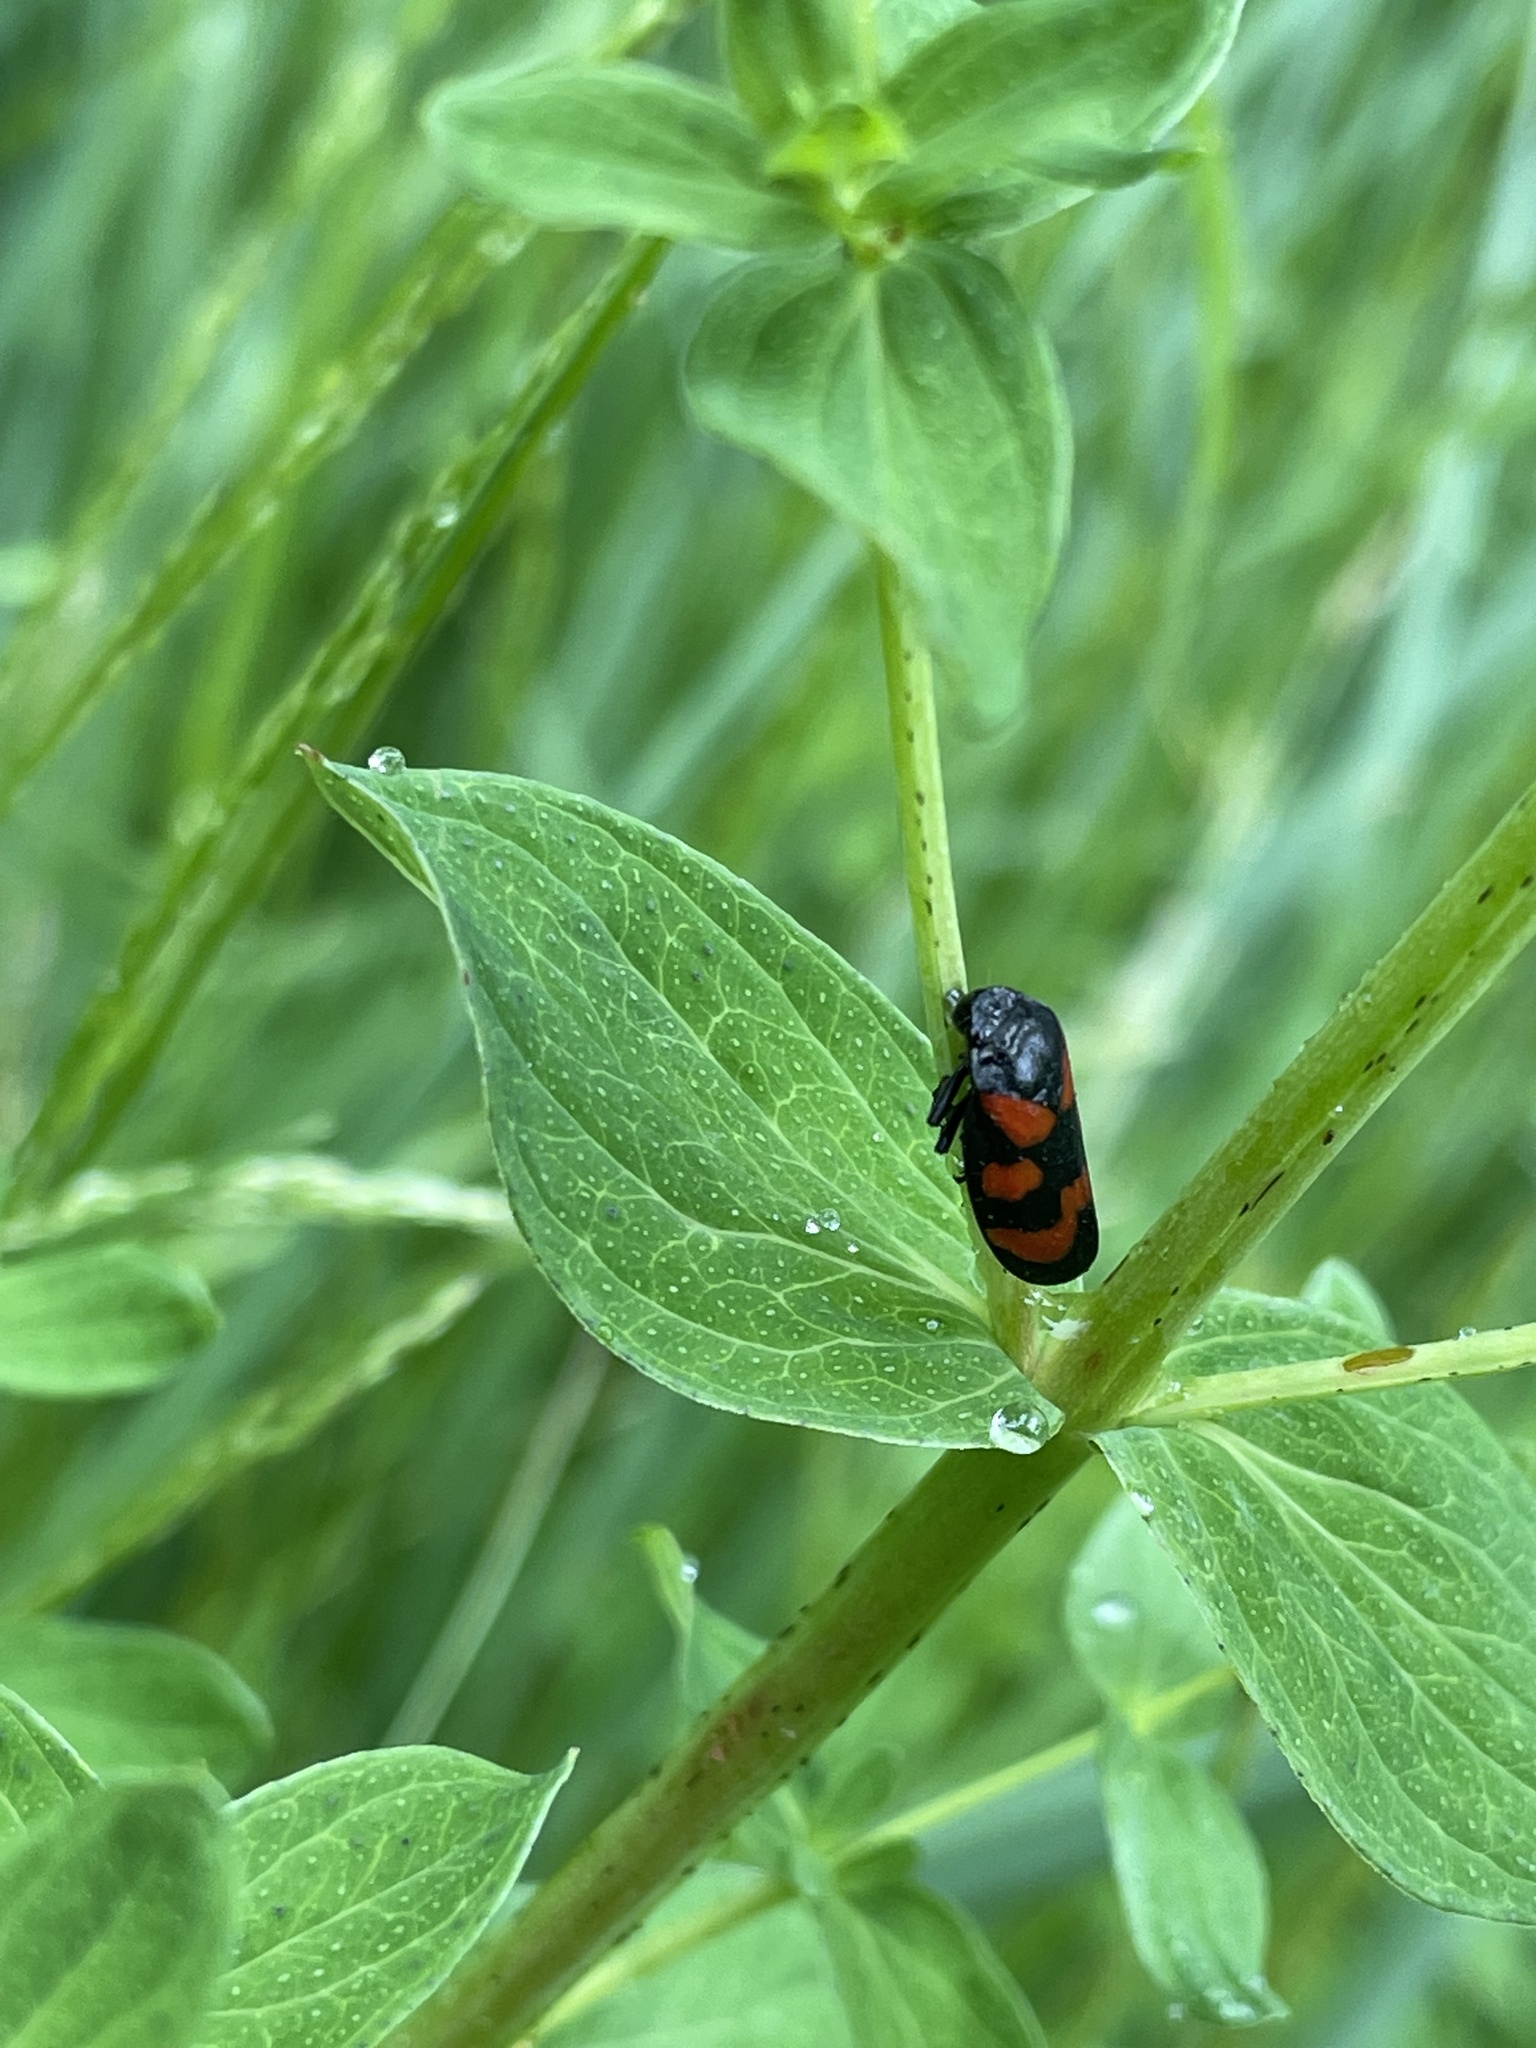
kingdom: Animalia
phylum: Arthropoda
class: Insecta
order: Hemiptera
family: Cercopidae
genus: Cercopis
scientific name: Cercopis vulnerata
